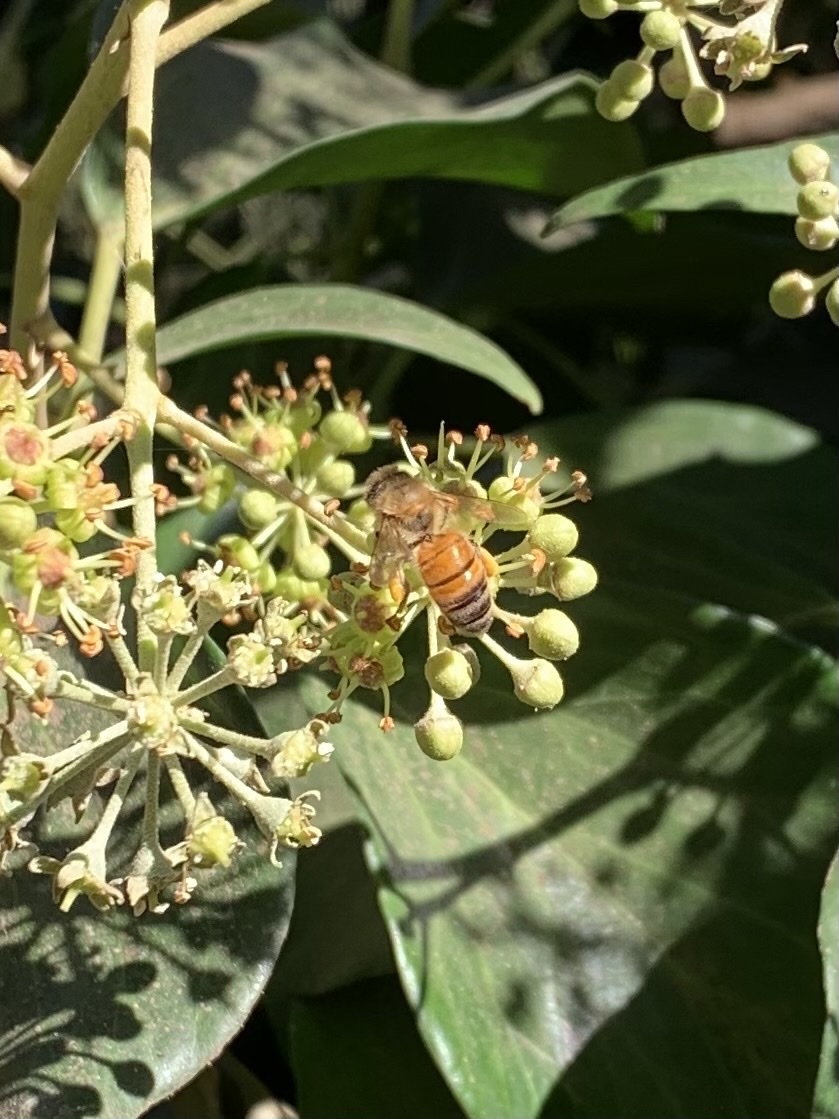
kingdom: Animalia
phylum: Arthropoda
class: Insecta
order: Hymenoptera
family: Apidae
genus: Apis
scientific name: Apis mellifera
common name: Honey bee
